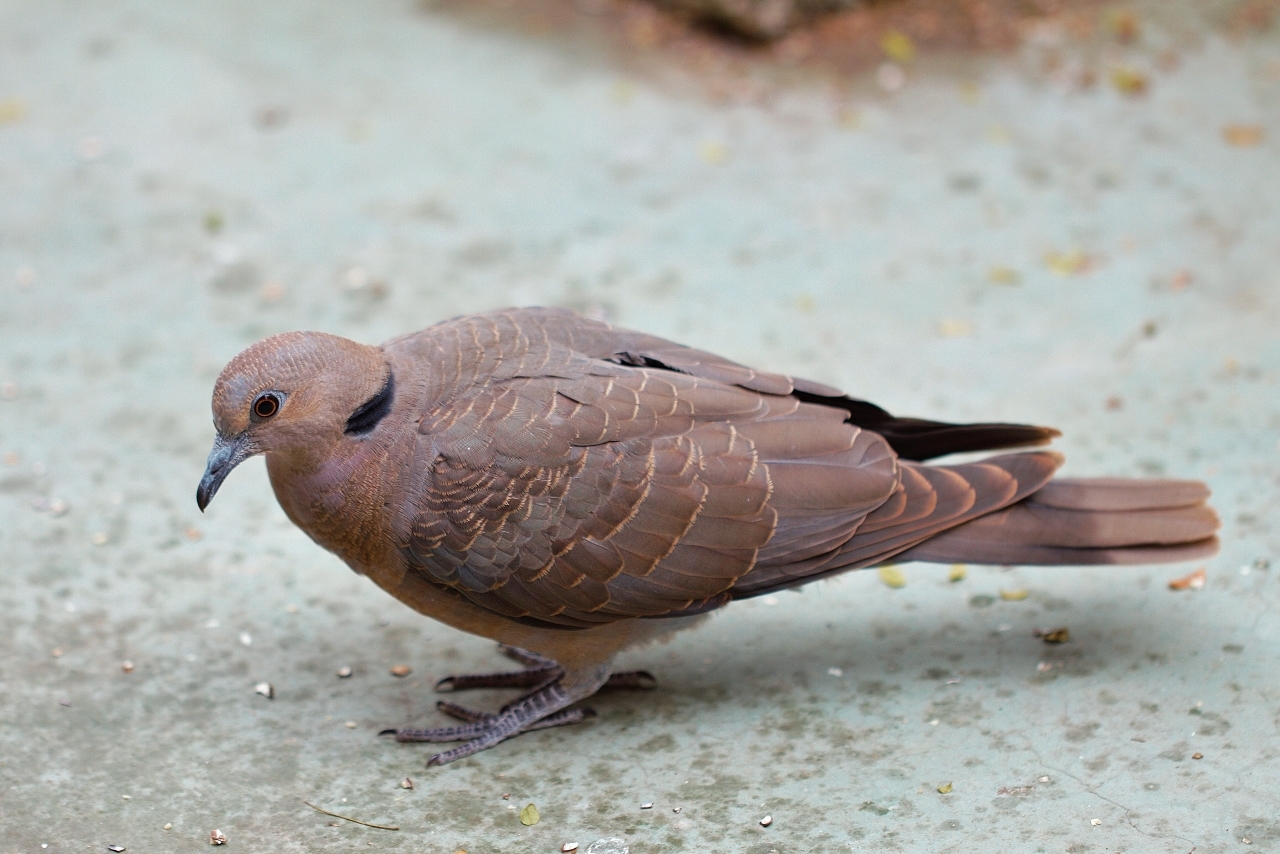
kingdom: Animalia
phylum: Chordata
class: Aves
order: Columbiformes
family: Columbidae
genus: Streptopelia
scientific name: Streptopelia semitorquata
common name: Red-eyed dove
